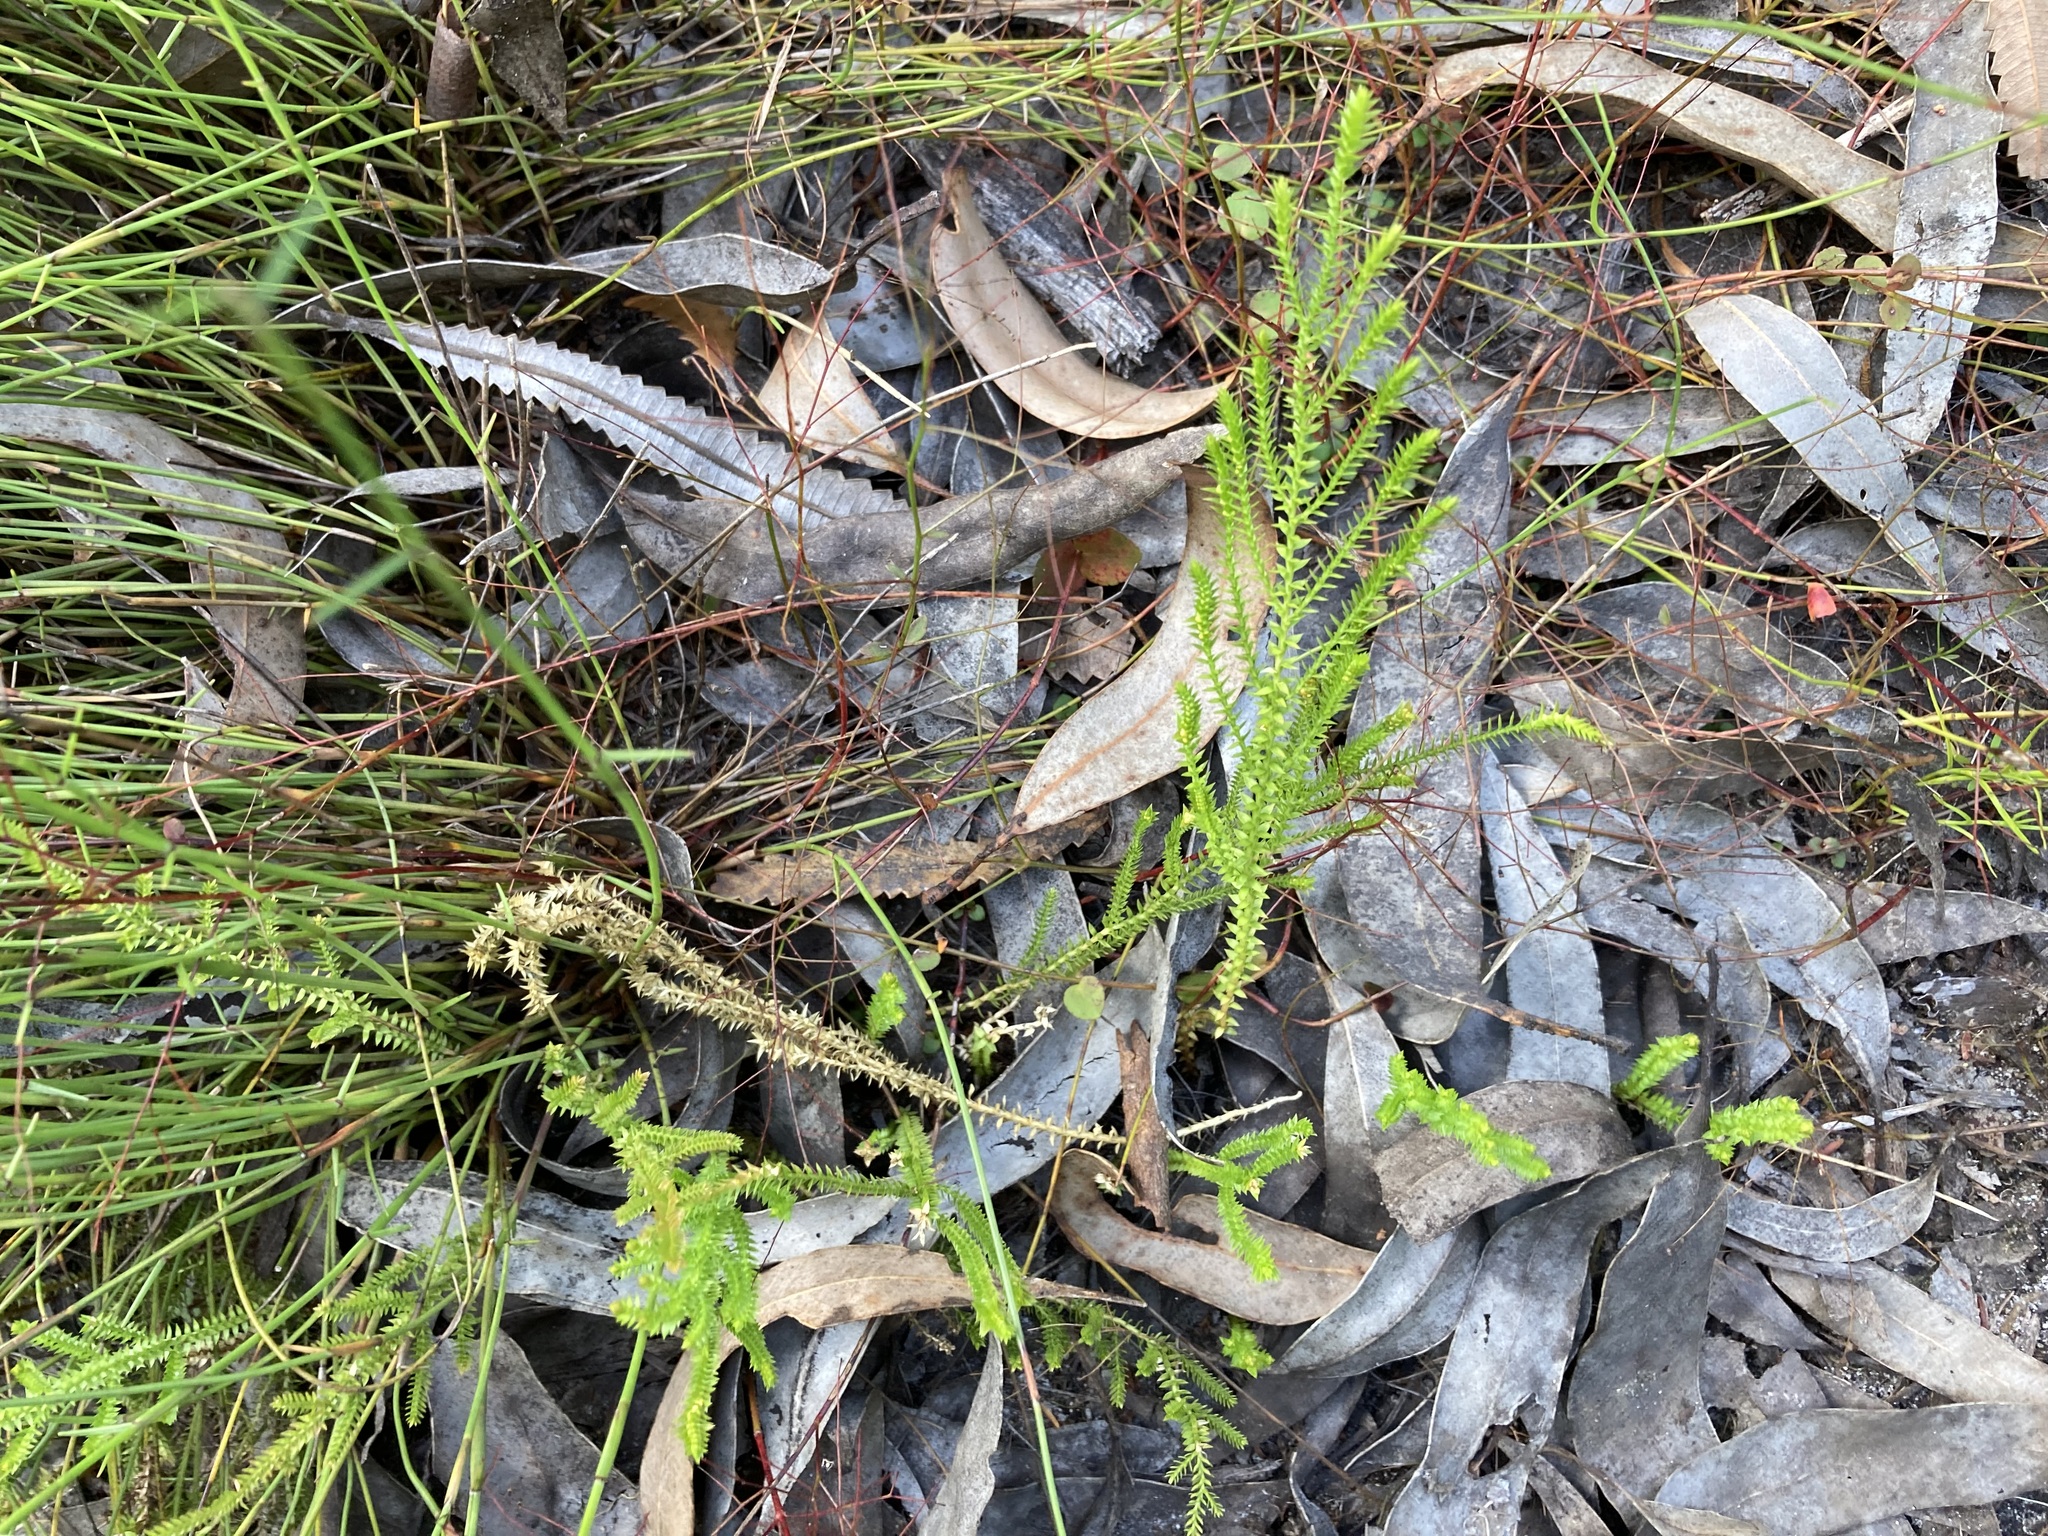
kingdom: Plantae
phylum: Tracheophyta
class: Lycopodiopsida
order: Selaginellales
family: Selaginellaceae
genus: Selaginella
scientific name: Selaginella uliginosa
